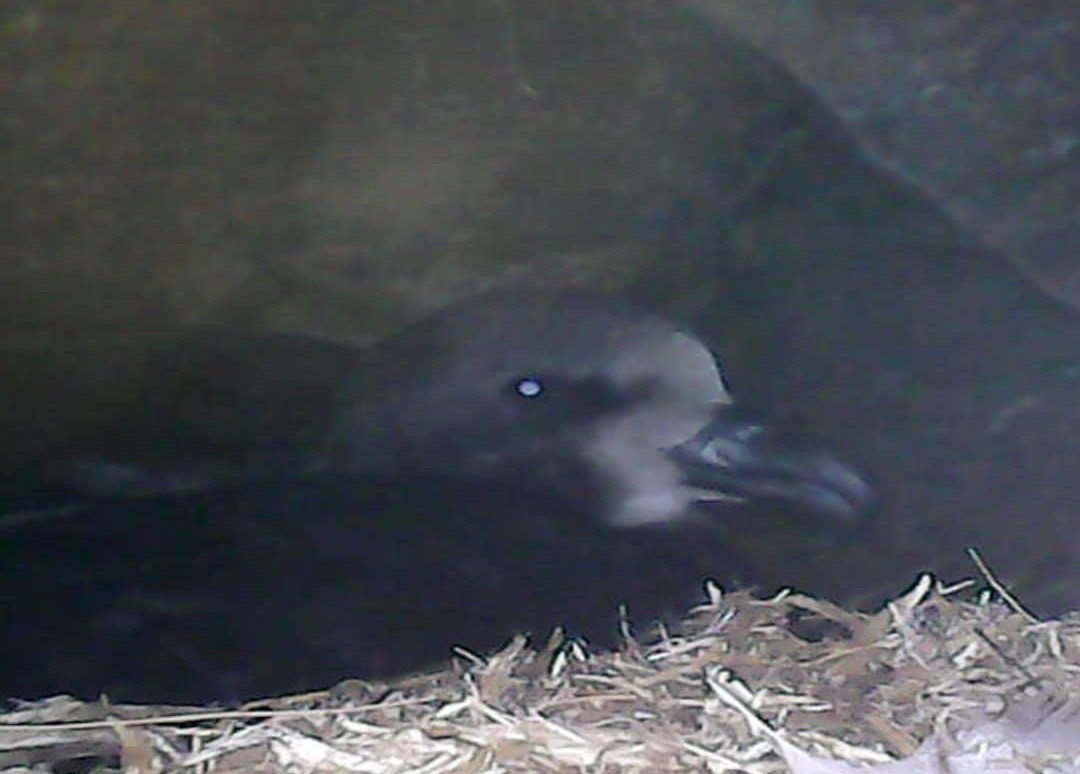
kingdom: Animalia
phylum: Chordata
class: Aves
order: Procellariiformes
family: Procellariidae
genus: Pterodroma
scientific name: Pterodroma macroptera
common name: Great-winged petrel
